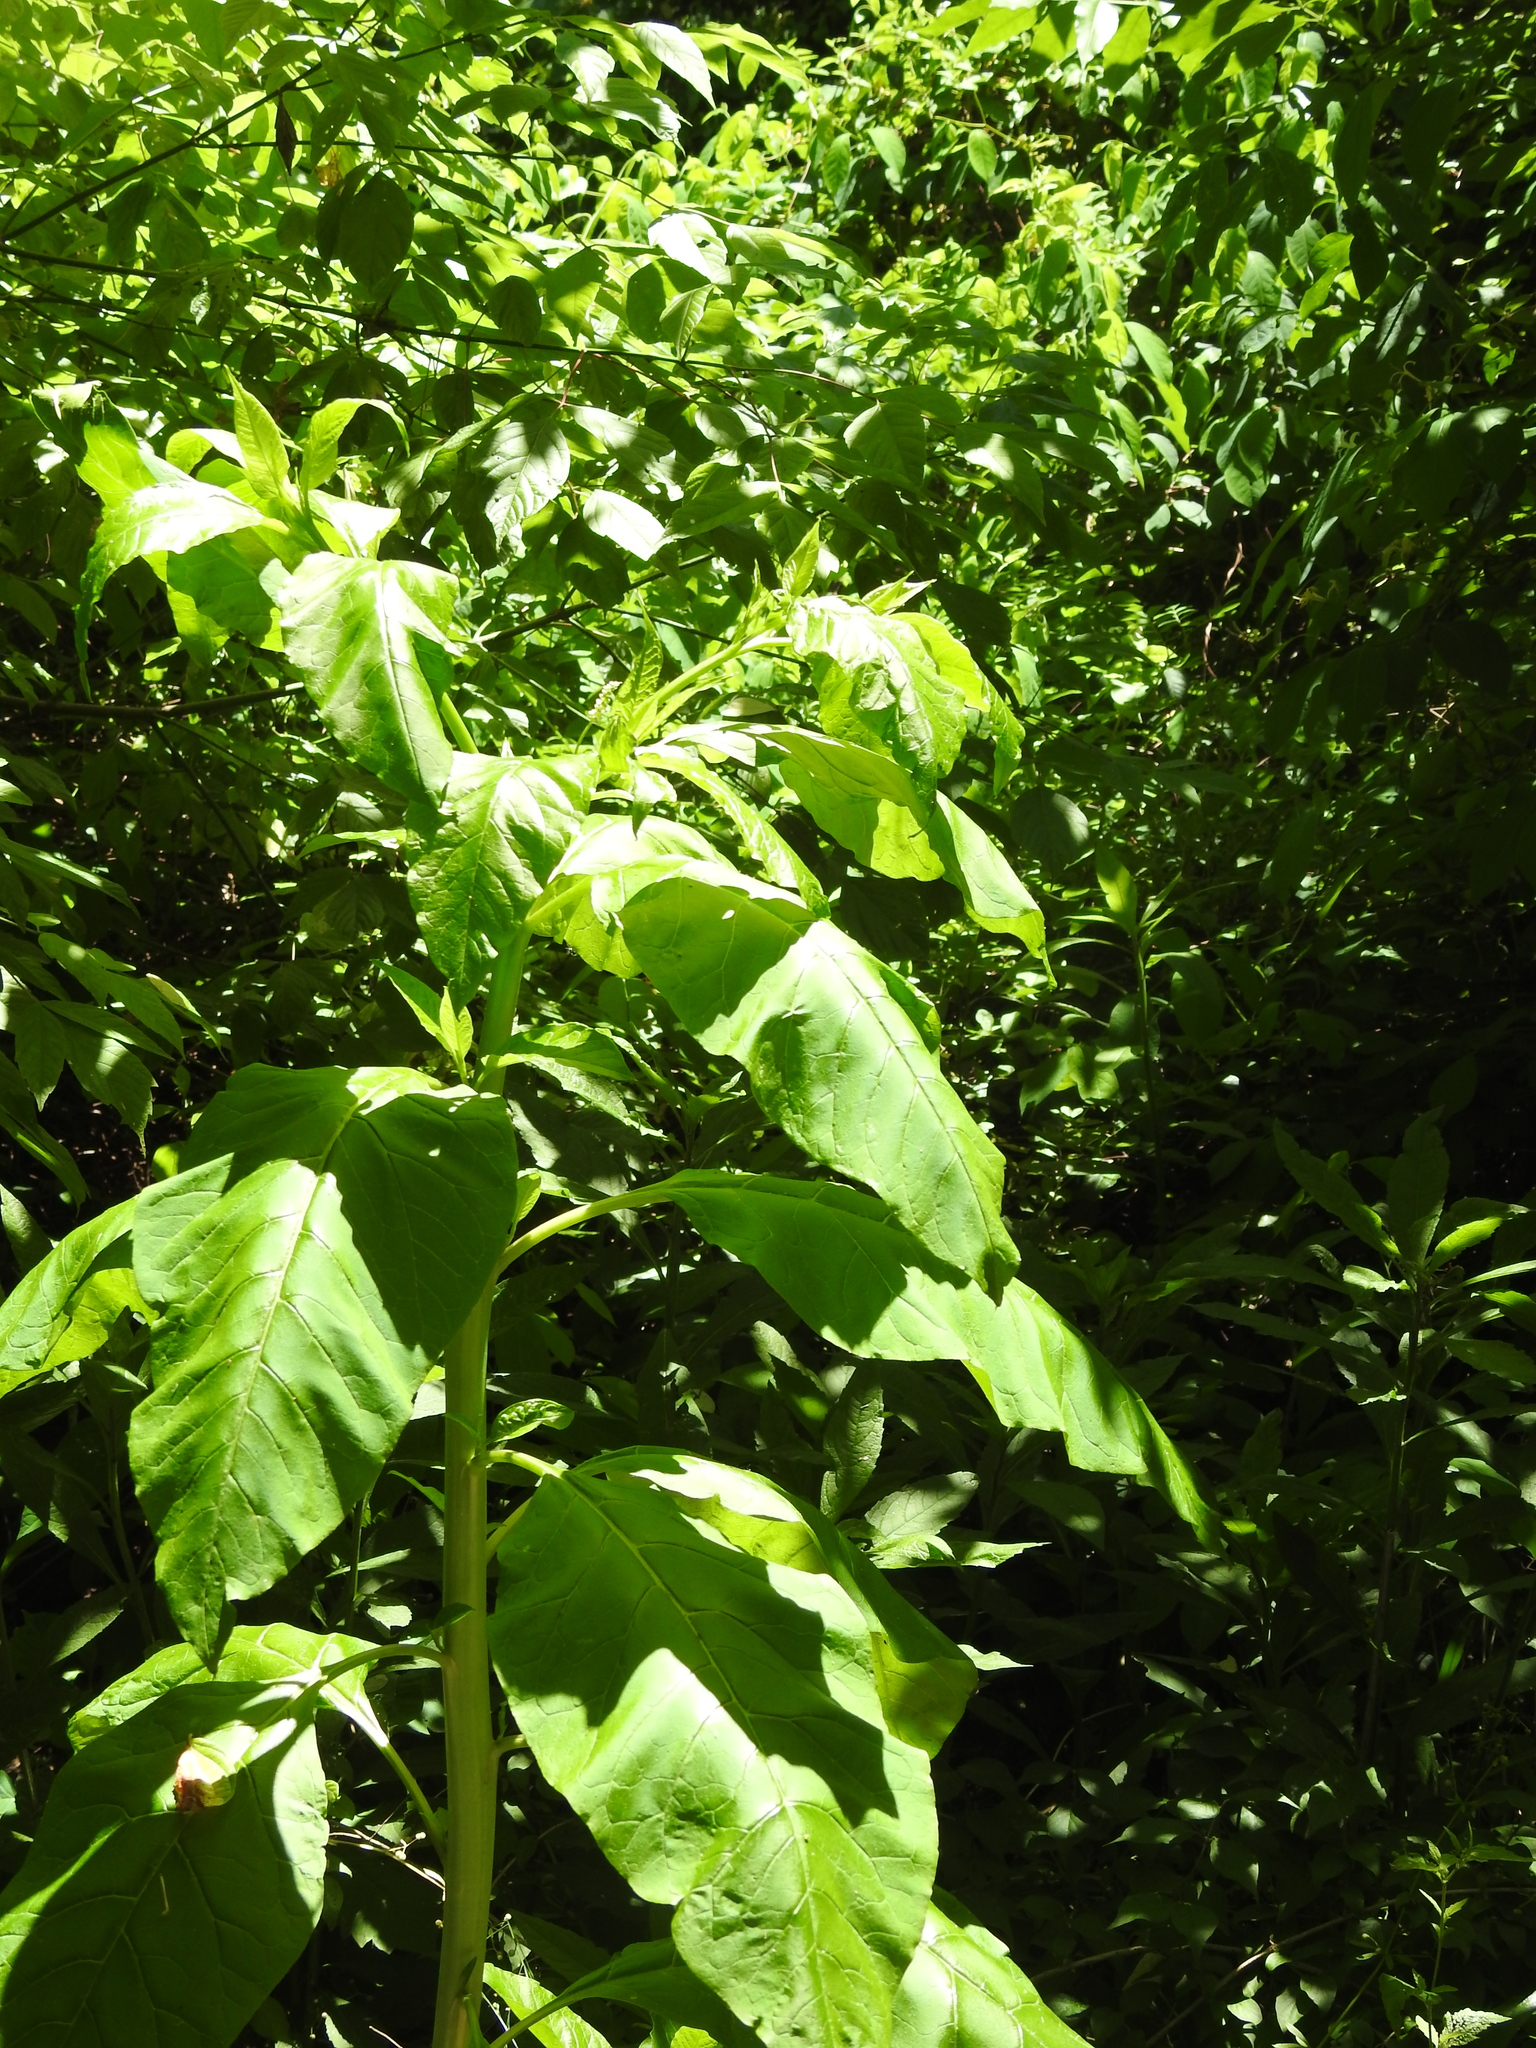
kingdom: Plantae
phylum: Tracheophyta
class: Magnoliopsida
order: Caryophyllales
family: Phytolaccaceae
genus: Phytolacca
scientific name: Phytolacca americana
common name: American pokeweed
